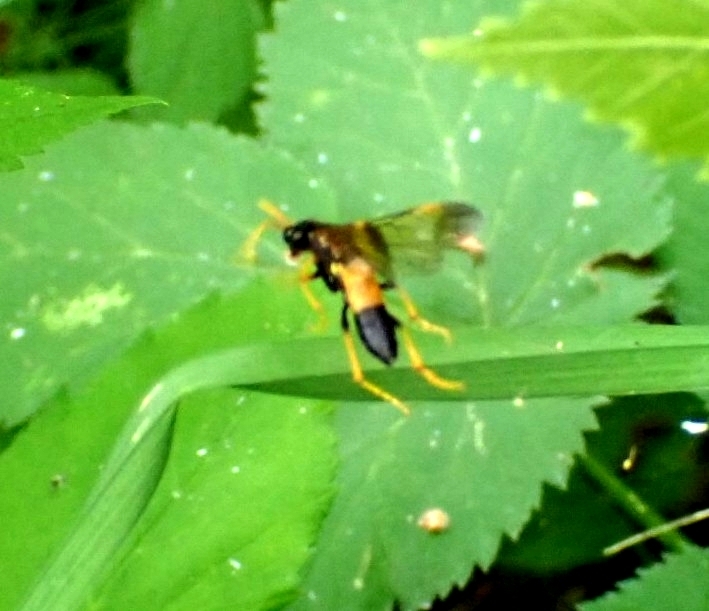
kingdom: Animalia
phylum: Arthropoda
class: Insecta
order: Hymenoptera
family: Tenthredinidae
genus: Tenthredo
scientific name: Tenthredo campestris
